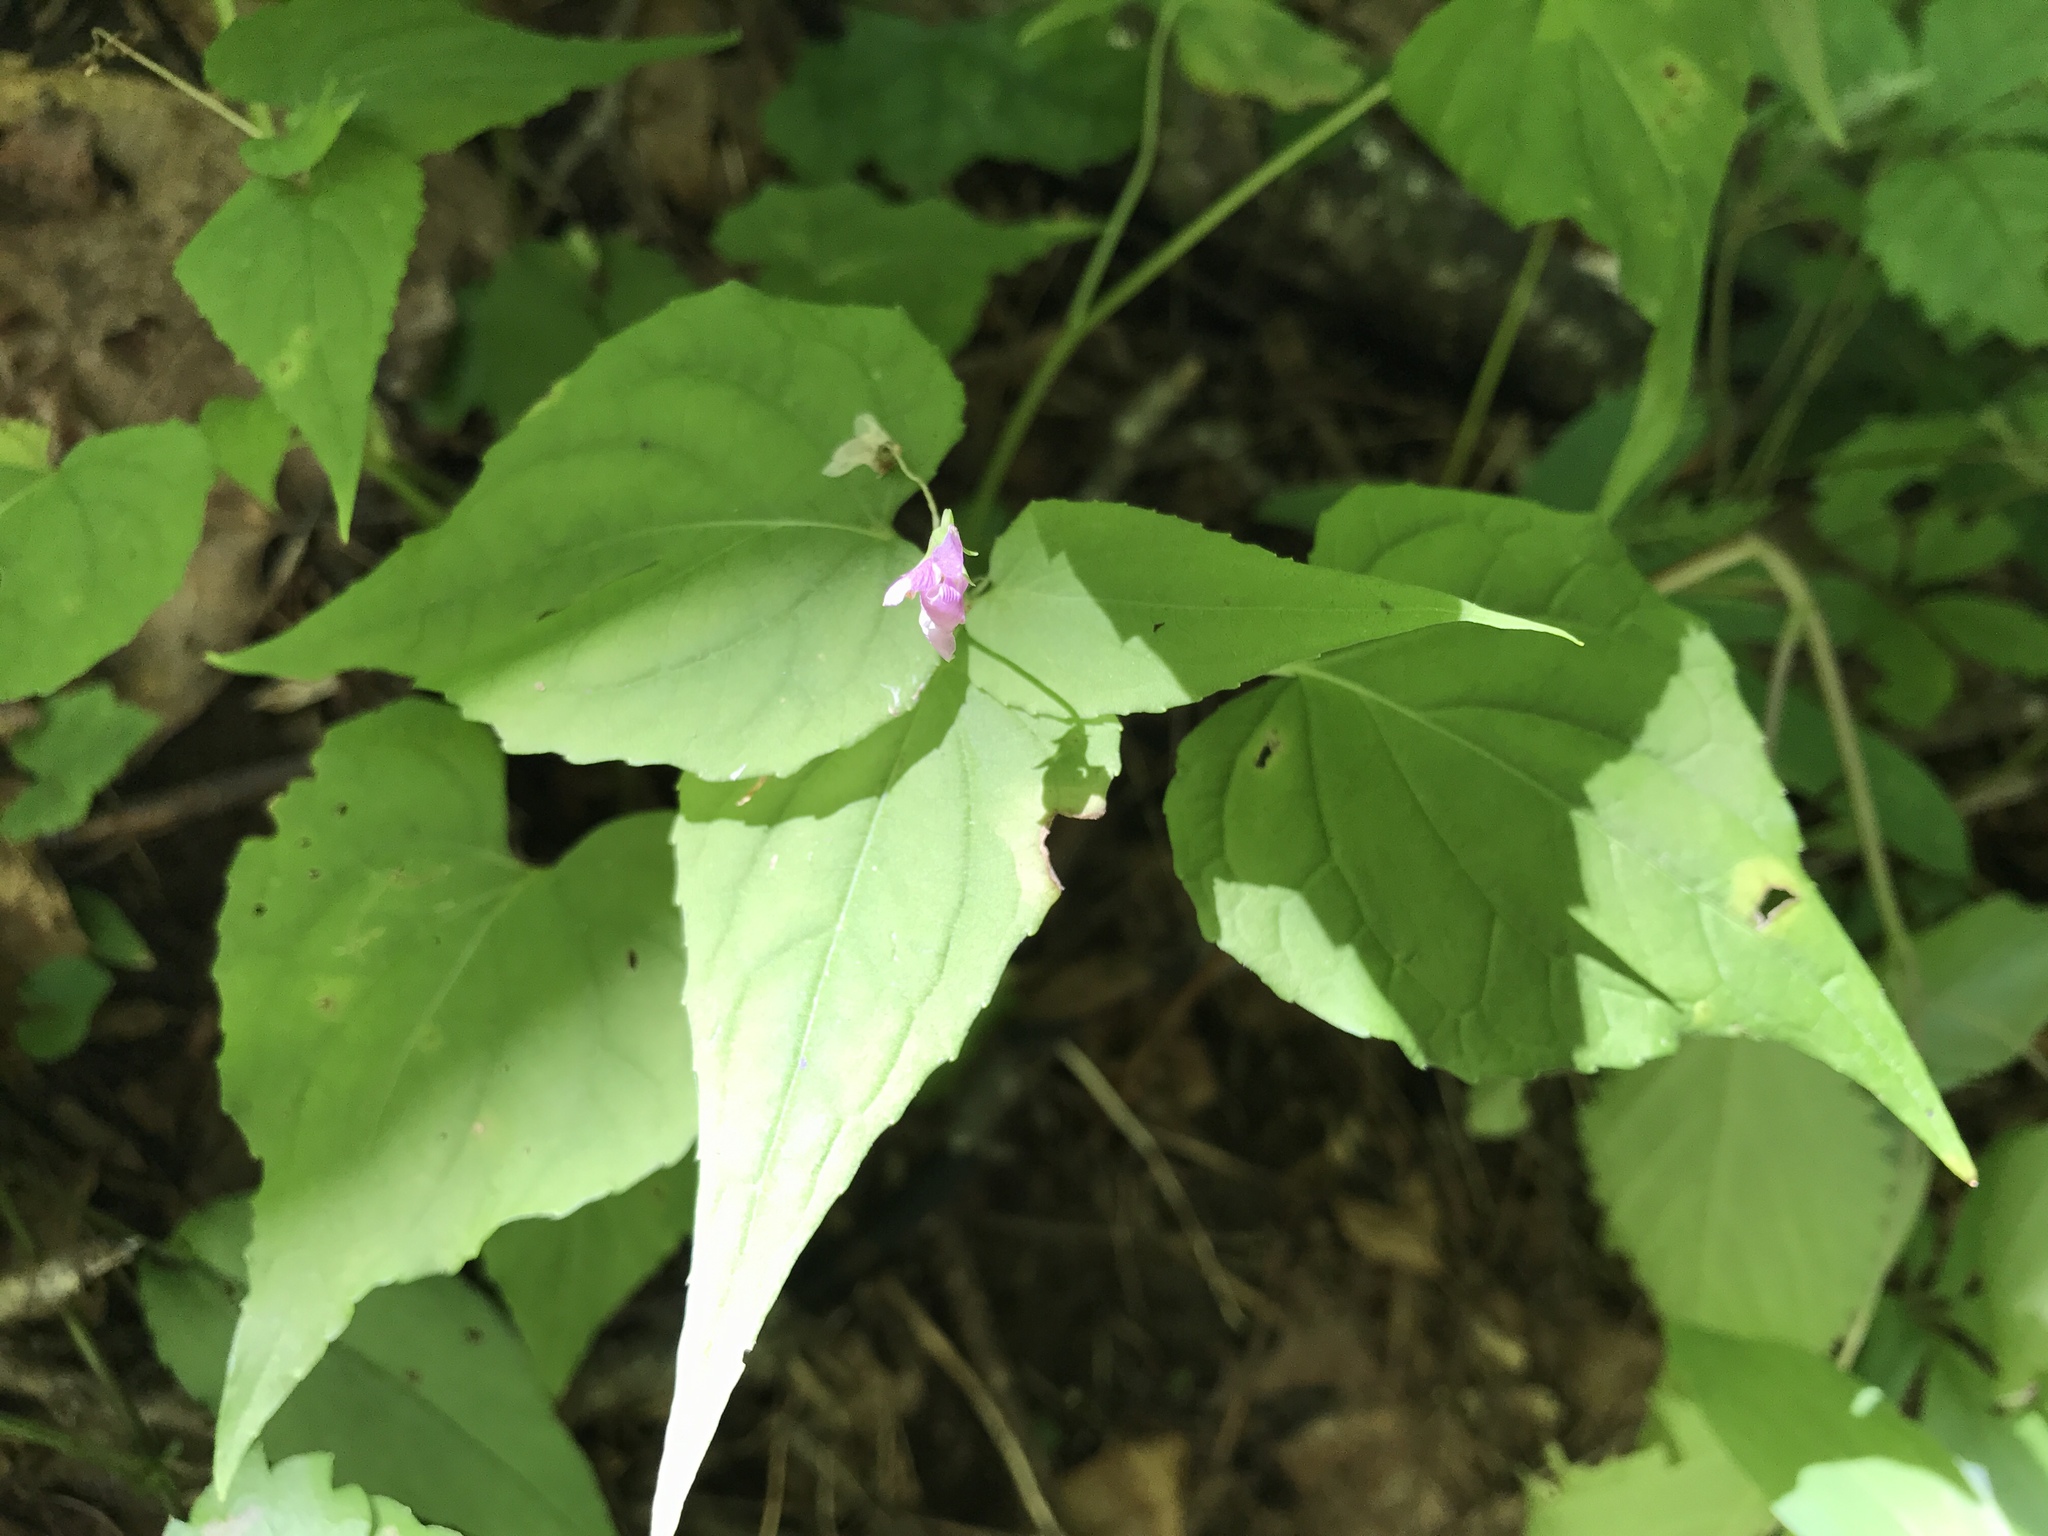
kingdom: Plantae
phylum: Tracheophyta
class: Magnoliopsida
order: Malpighiales
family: Violaceae
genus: Viola
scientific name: Viola canadensis
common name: Canada violet
